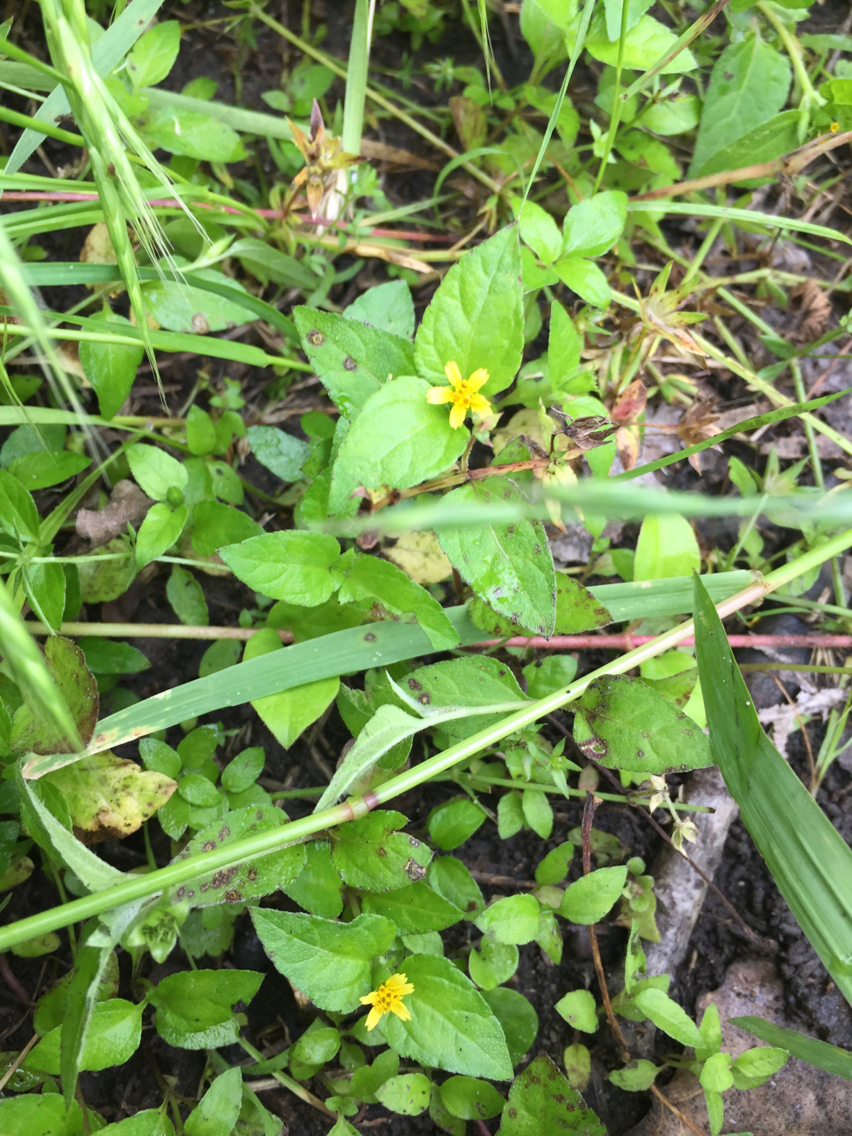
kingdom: Plantae
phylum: Tracheophyta
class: Magnoliopsida
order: Asterales
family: Asteraceae
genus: Calyptocarpus
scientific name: Calyptocarpus vialis
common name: Straggler daisy
